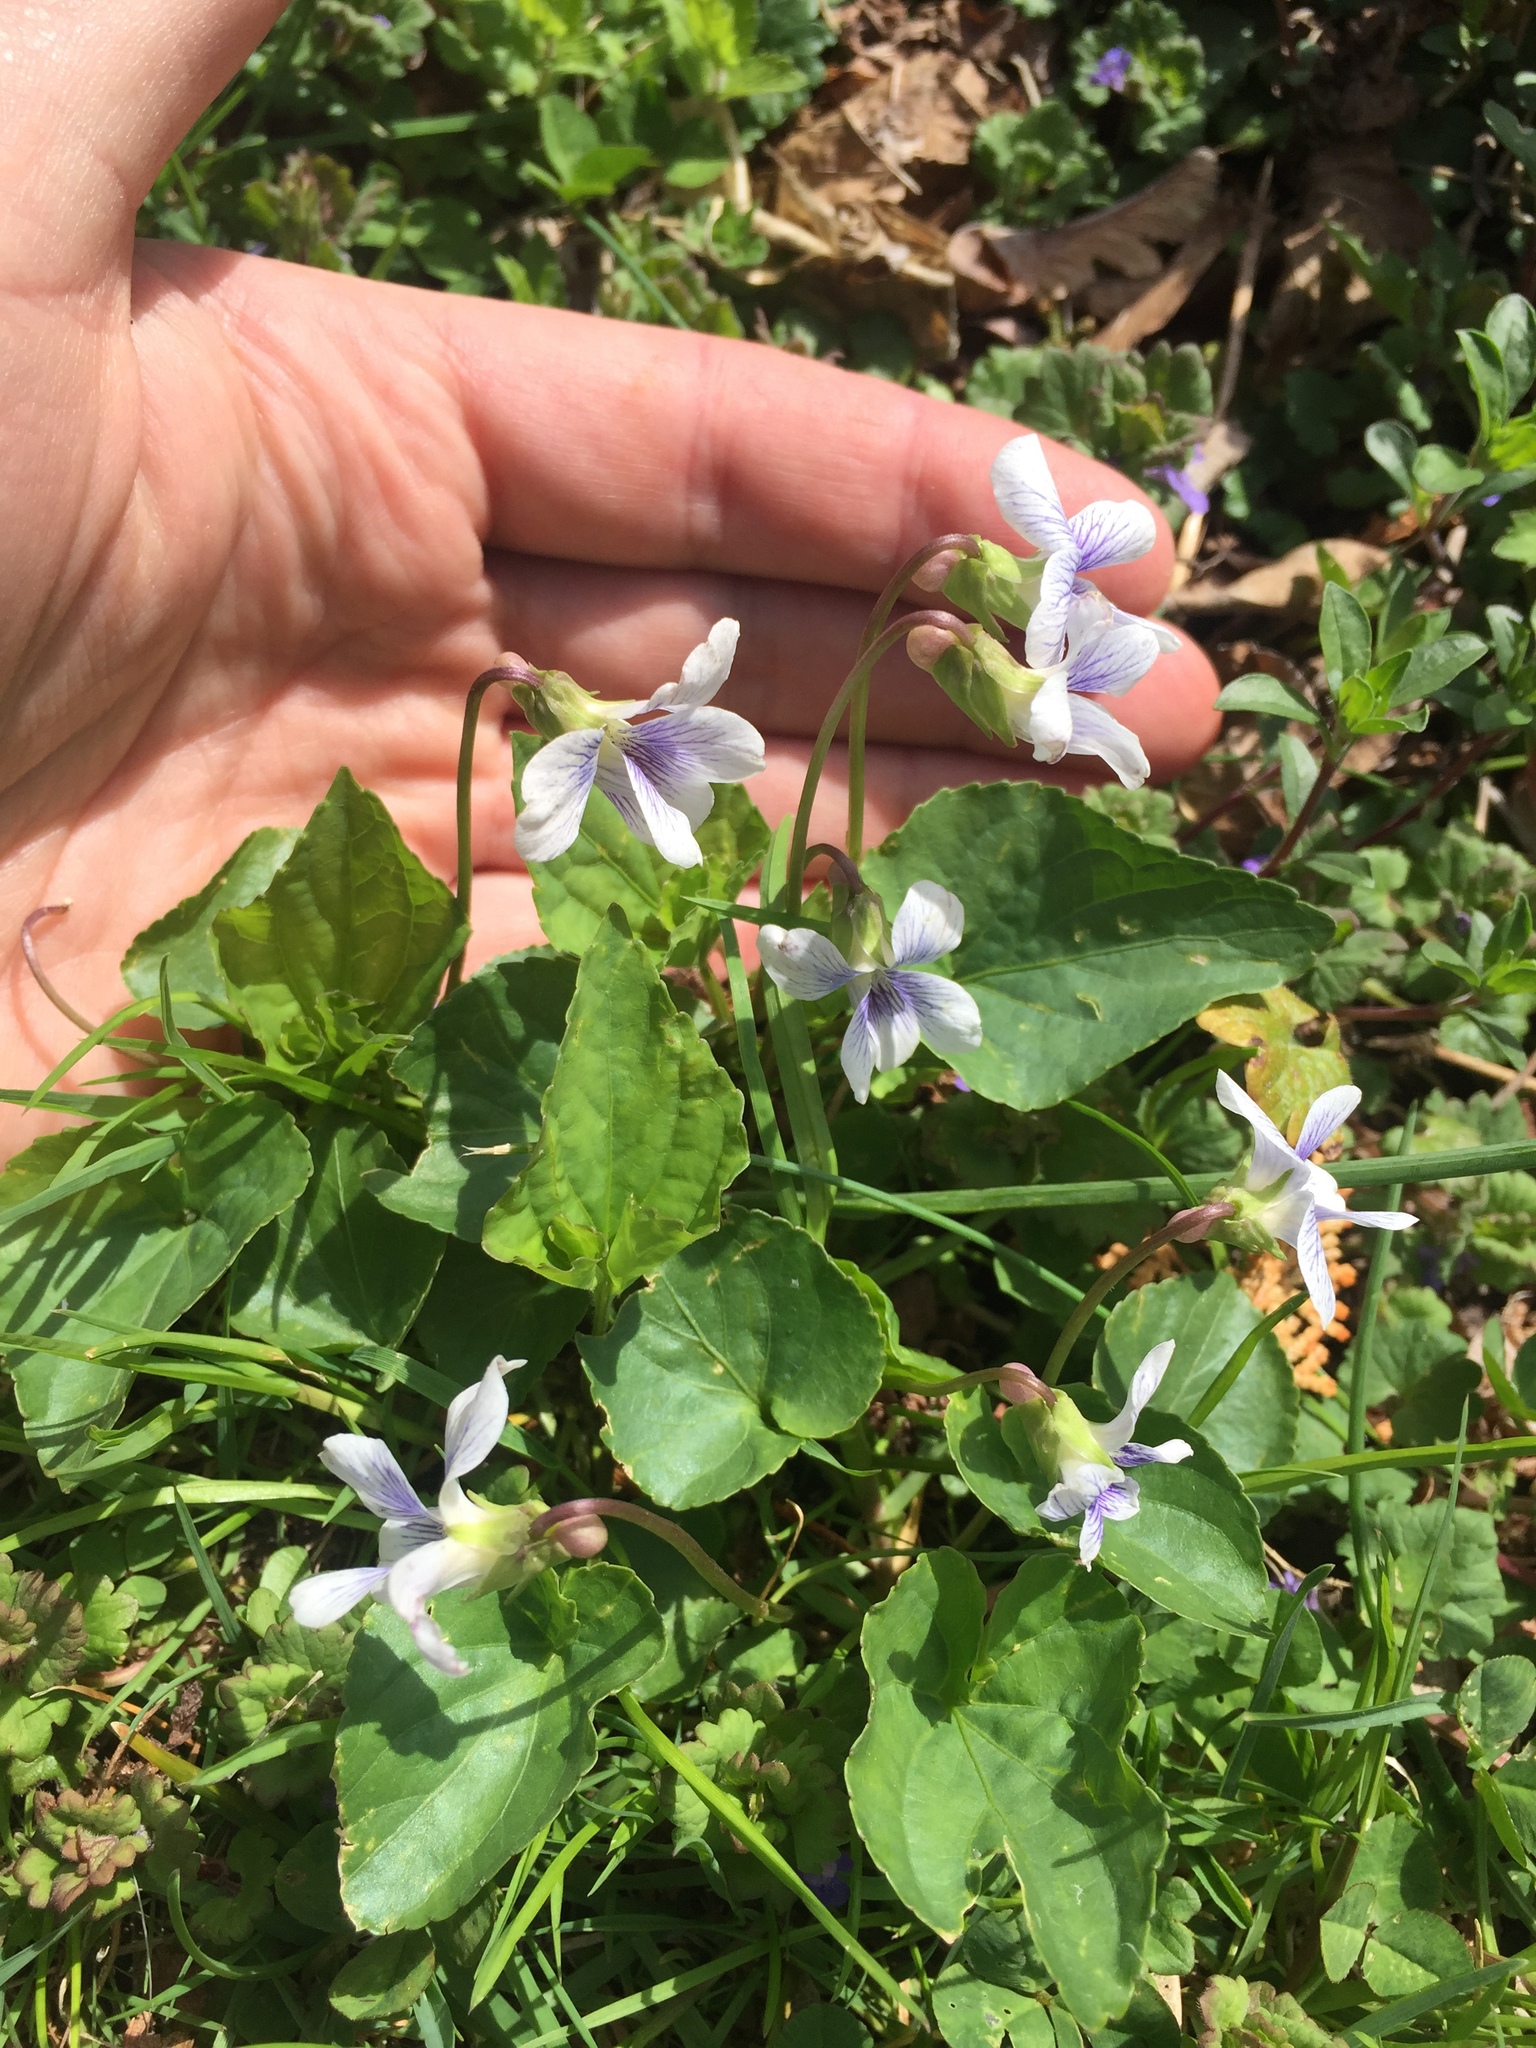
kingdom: Plantae
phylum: Tracheophyta
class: Magnoliopsida
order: Malpighiales
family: Violaceae
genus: Viola
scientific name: Viola sororia
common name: Dooryard violet
